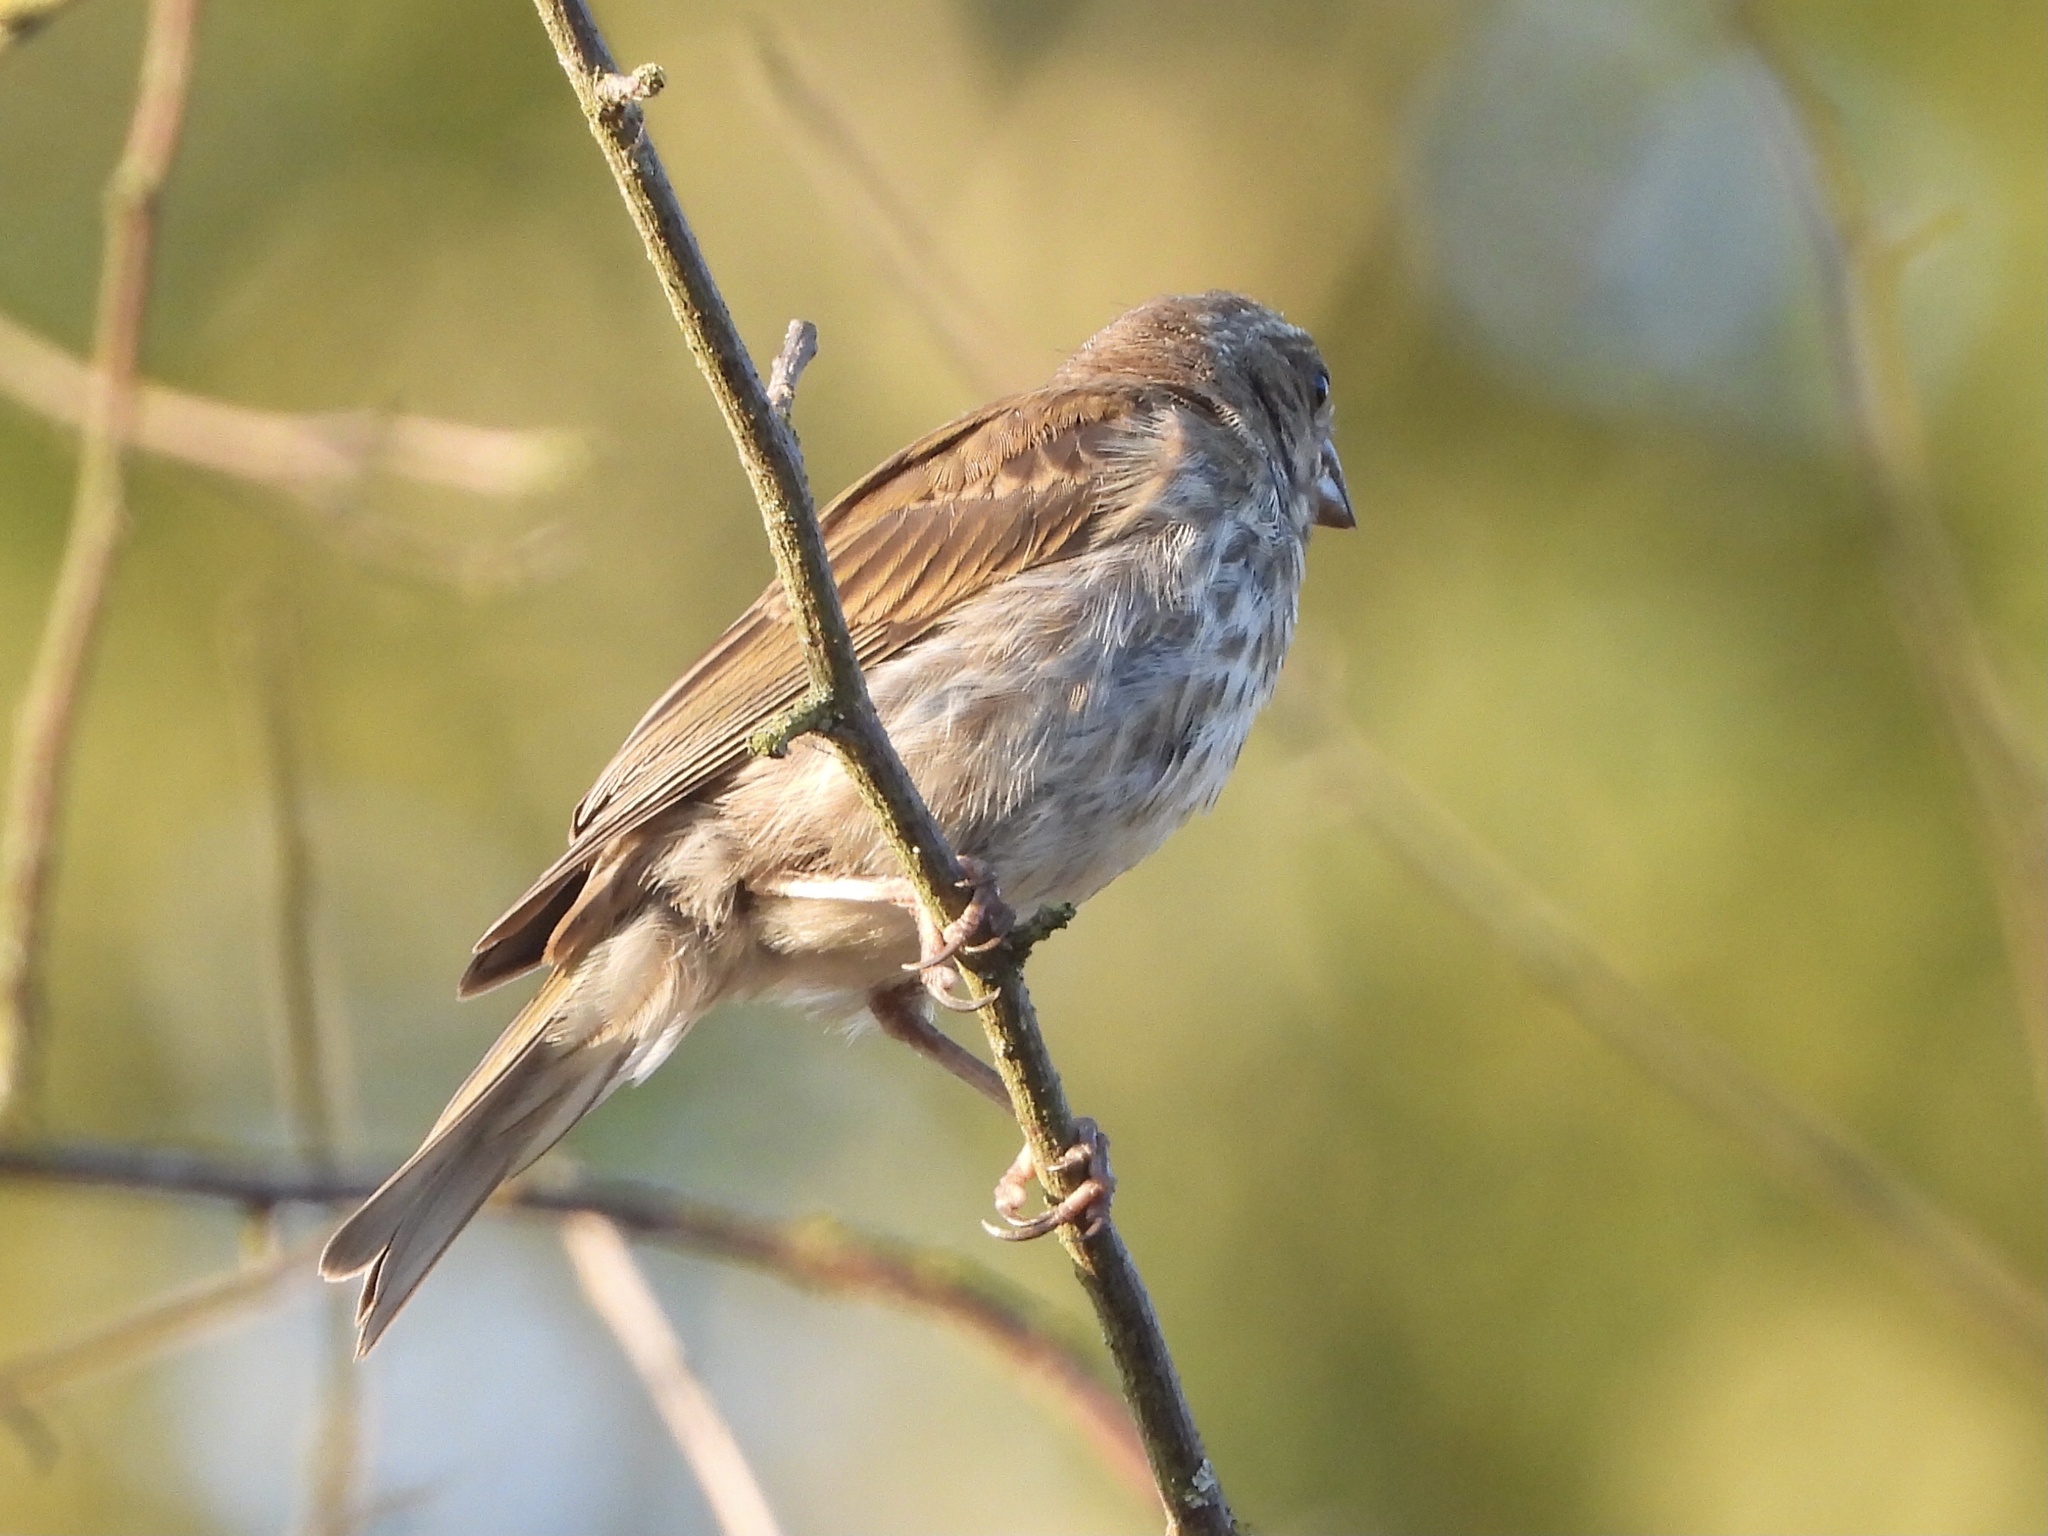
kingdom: Animalia
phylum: Chordata
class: Aves
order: Passeriformes
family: Fringillidae
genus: Haemorhous
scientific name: Haemorhous purpureus
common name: Purple finch
